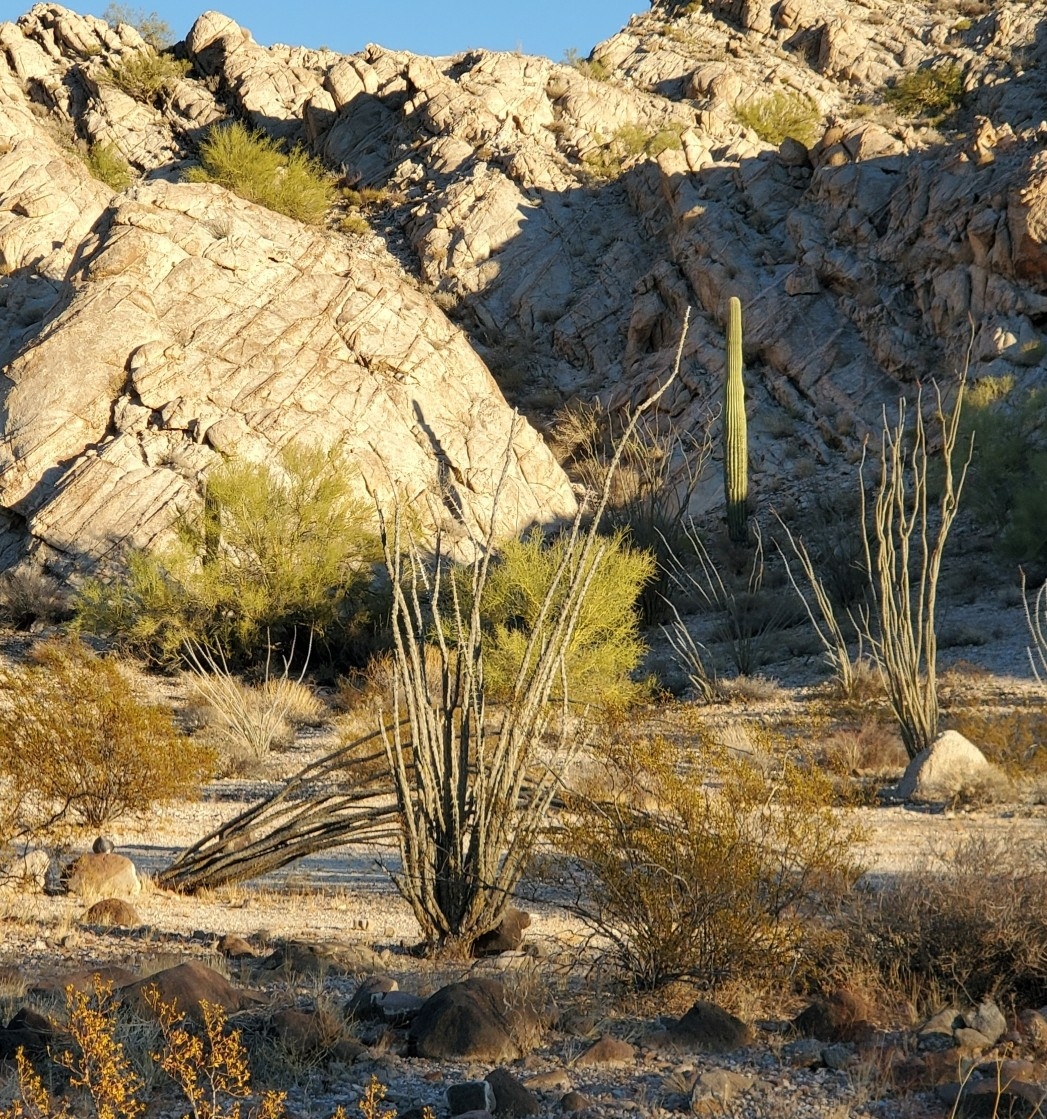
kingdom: Plantae
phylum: Tracheophyta
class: Magnoliopsida
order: Ericales
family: Fouquieriaceae
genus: Fouquieria
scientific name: Fouquieria splendens
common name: Vine-cactus
